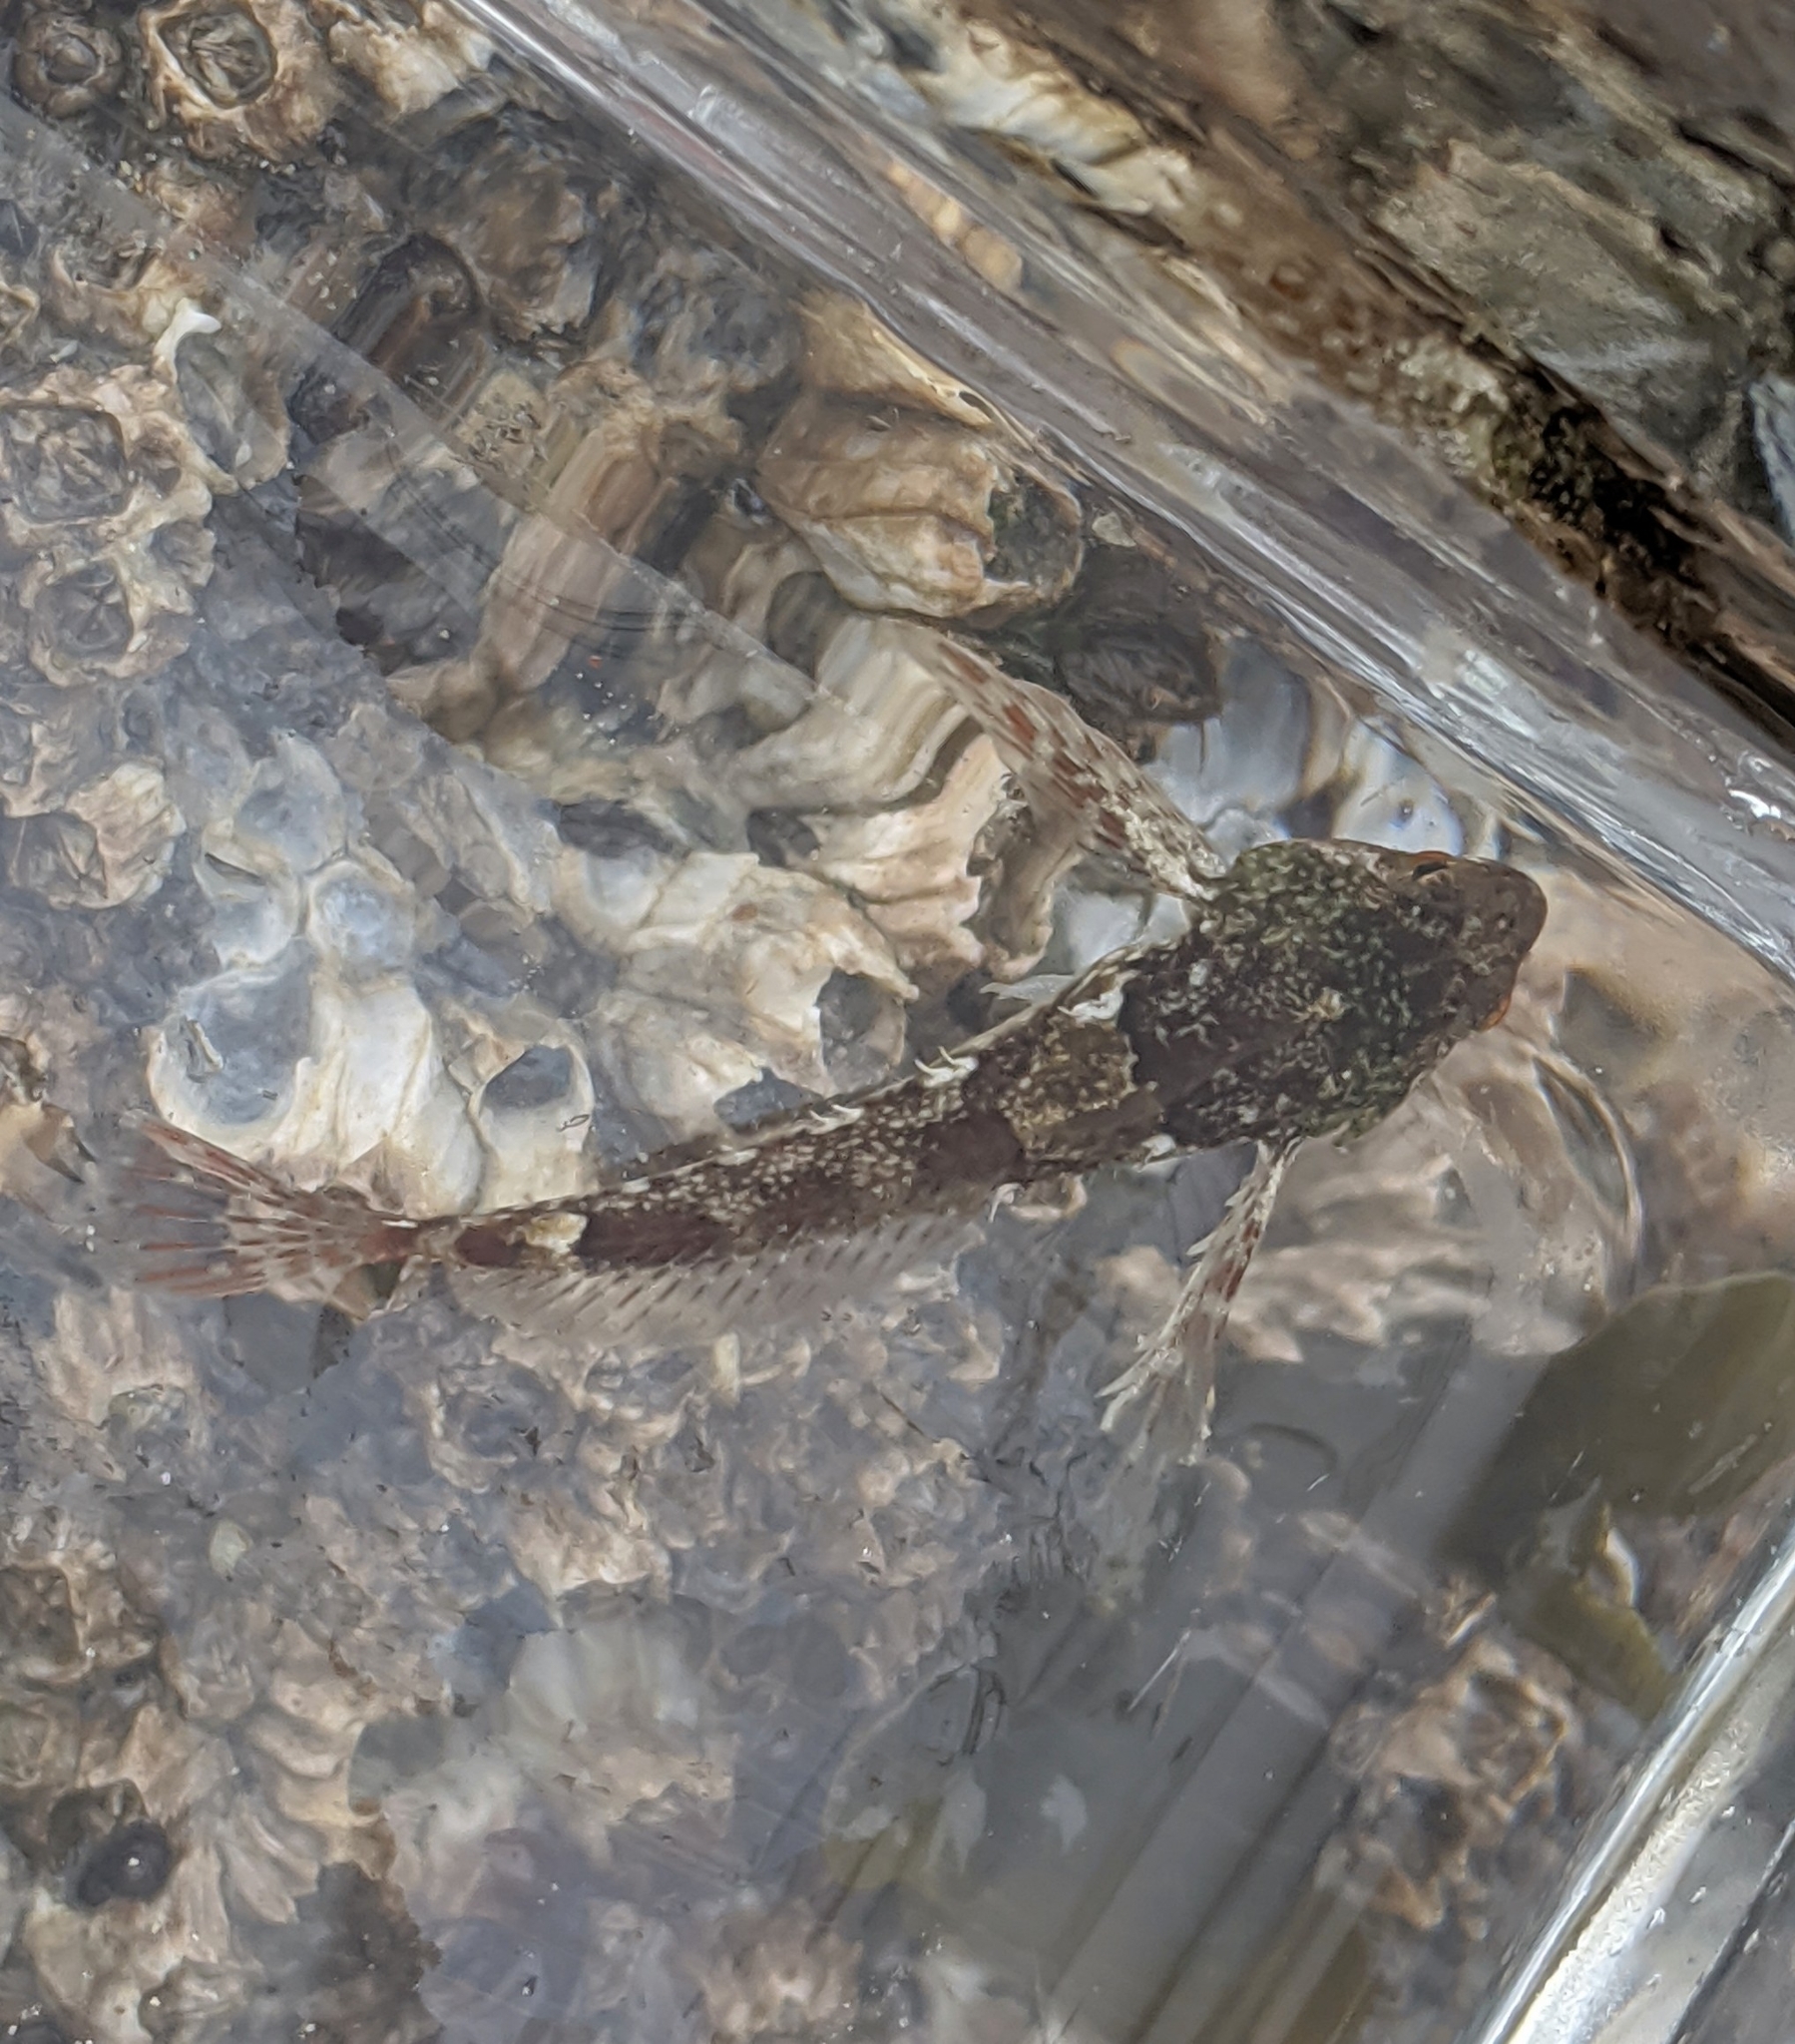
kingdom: Animalia
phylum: Chordata
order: Scorpaeniformes
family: Cottidae
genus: Oligocottus
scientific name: Oligocottus maculosus
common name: Tidepool sculpin
